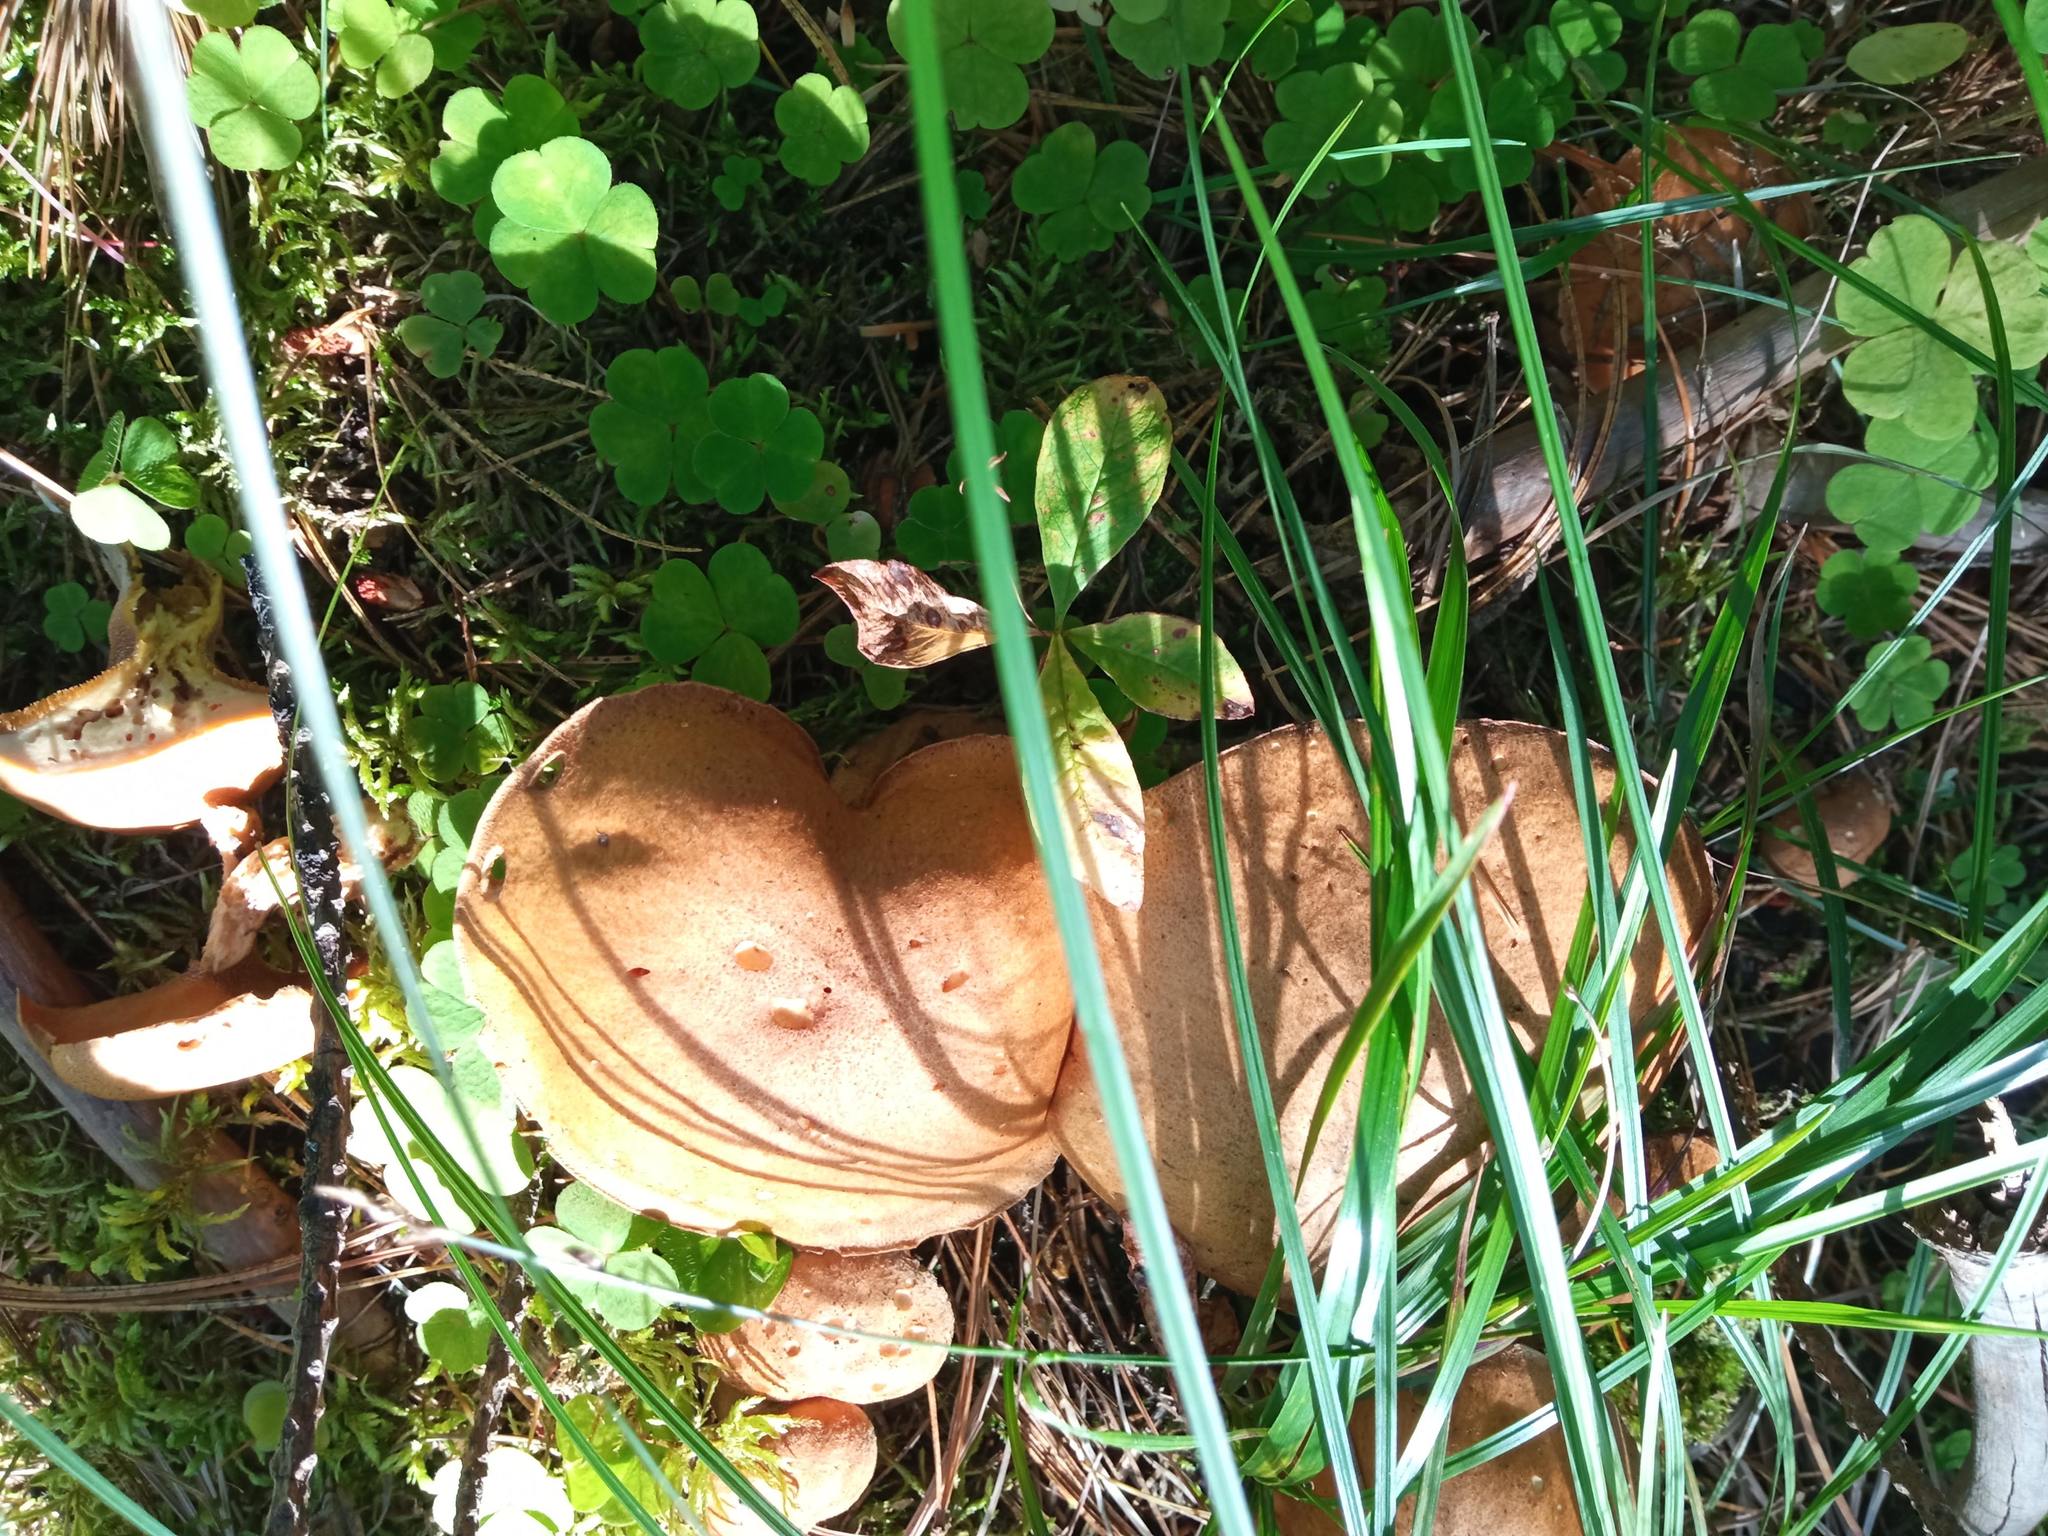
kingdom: Fungi
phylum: Basidiomycota
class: Agaricomycetes
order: Boletales
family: Suillaceae
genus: Suillus
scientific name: Suillus punctipes
